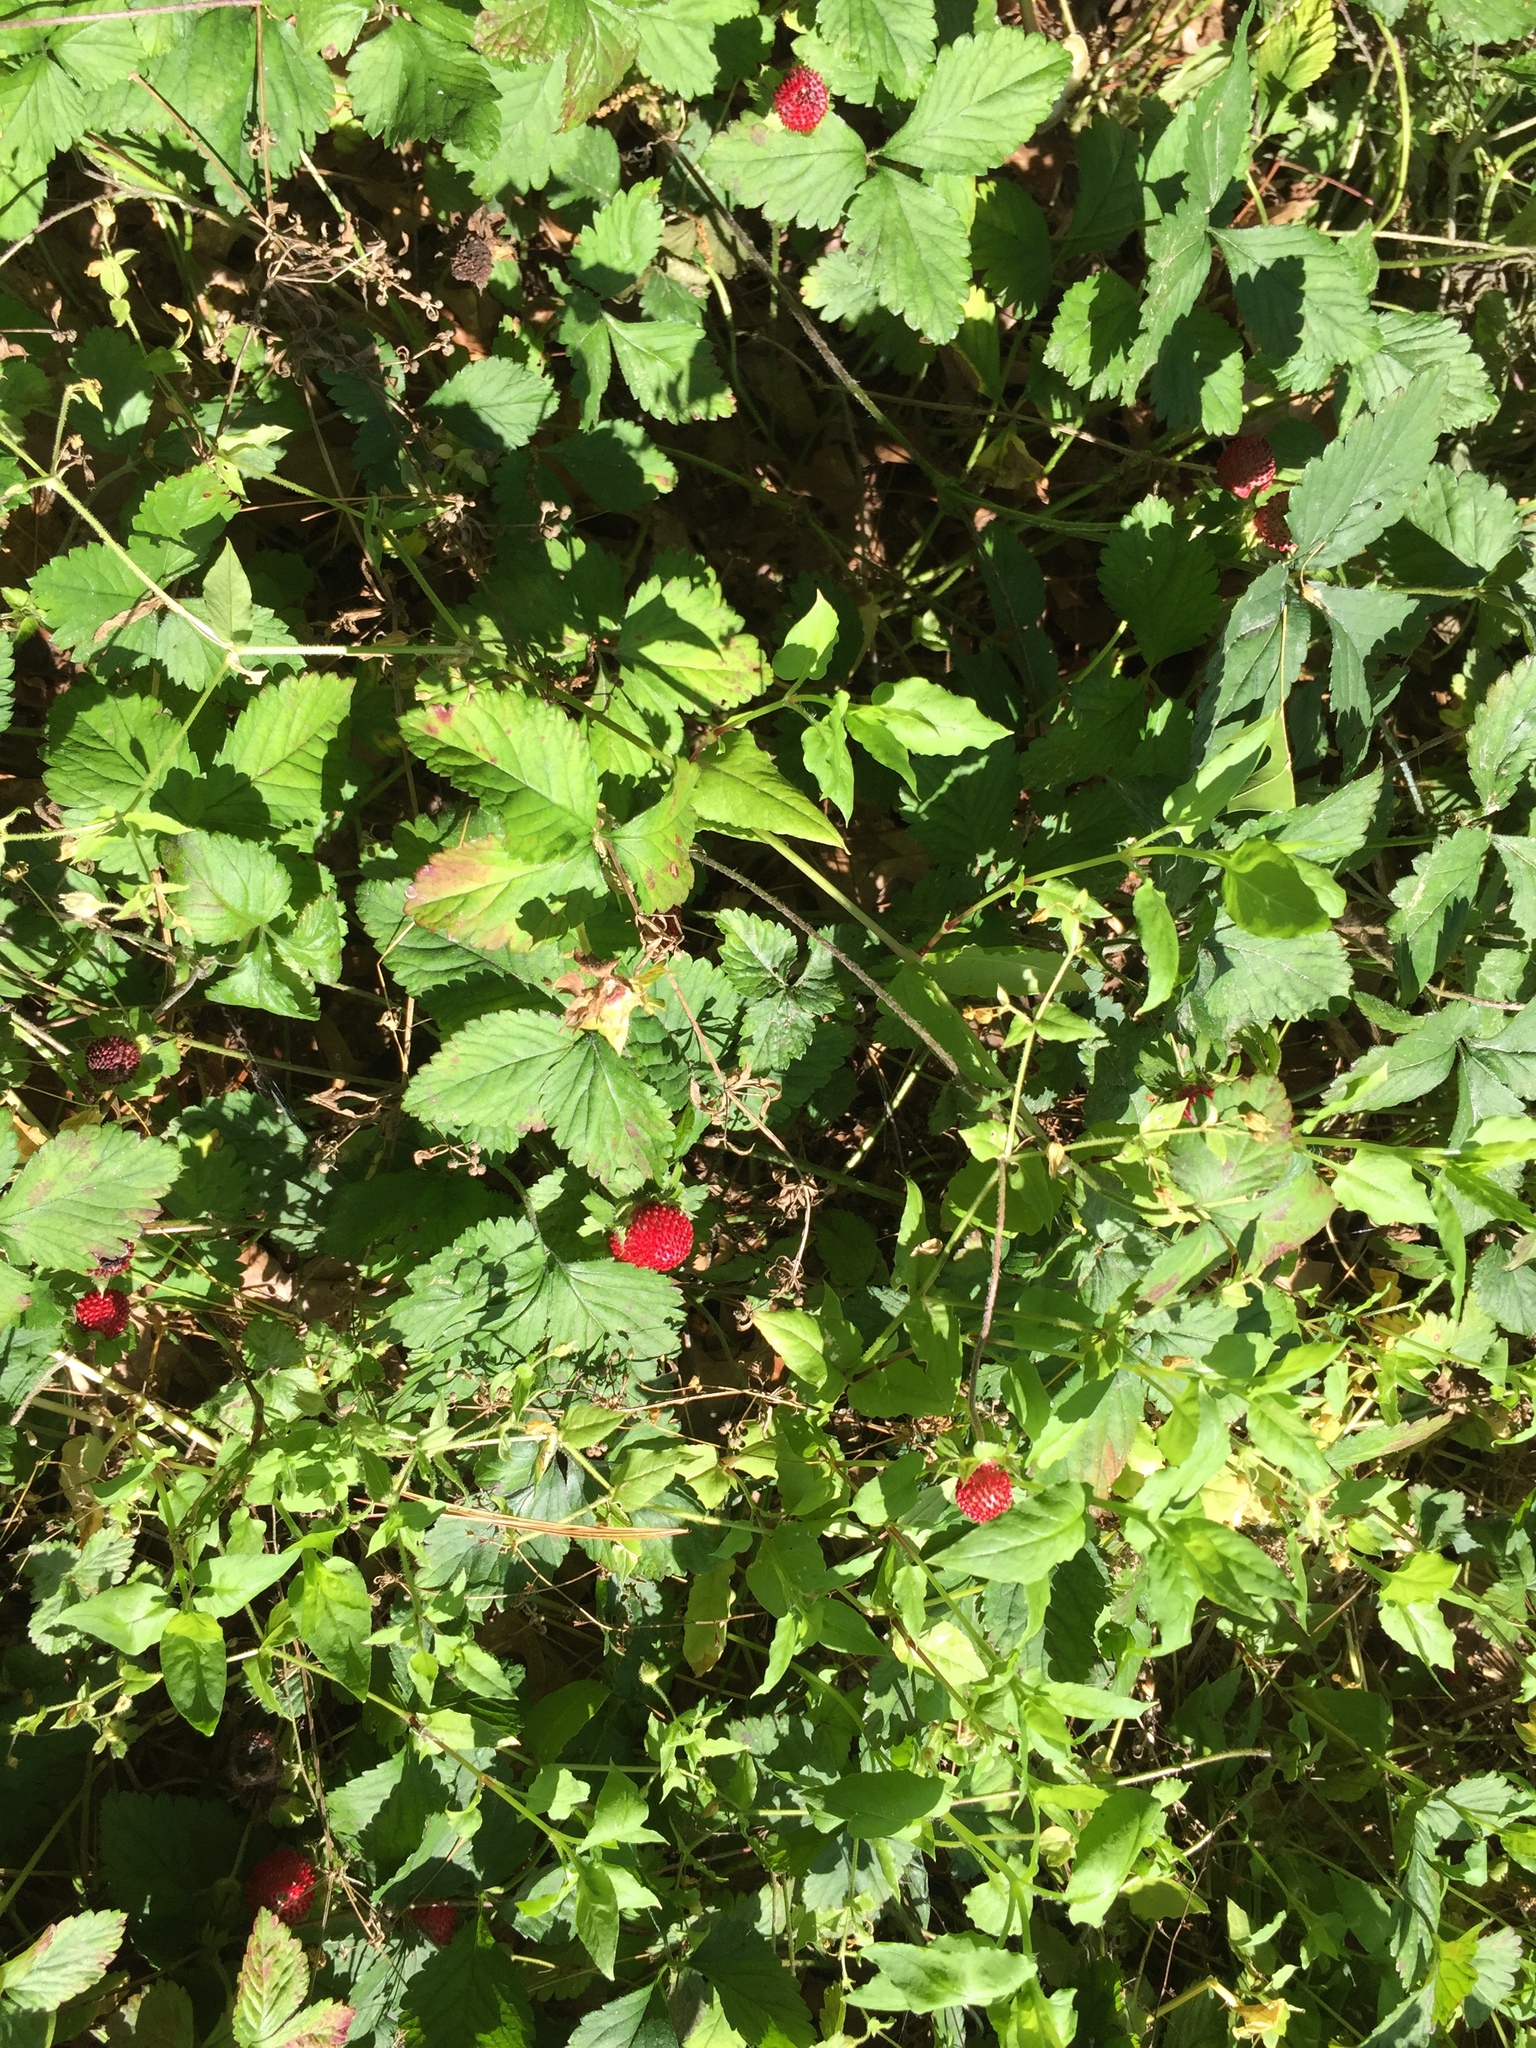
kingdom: Plantae
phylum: Tracheophyta
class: Magnoliopsida
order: Rosales
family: Rosaceae
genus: Potentilla
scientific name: Potentilla indica
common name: Yellow-flowered strawberry
